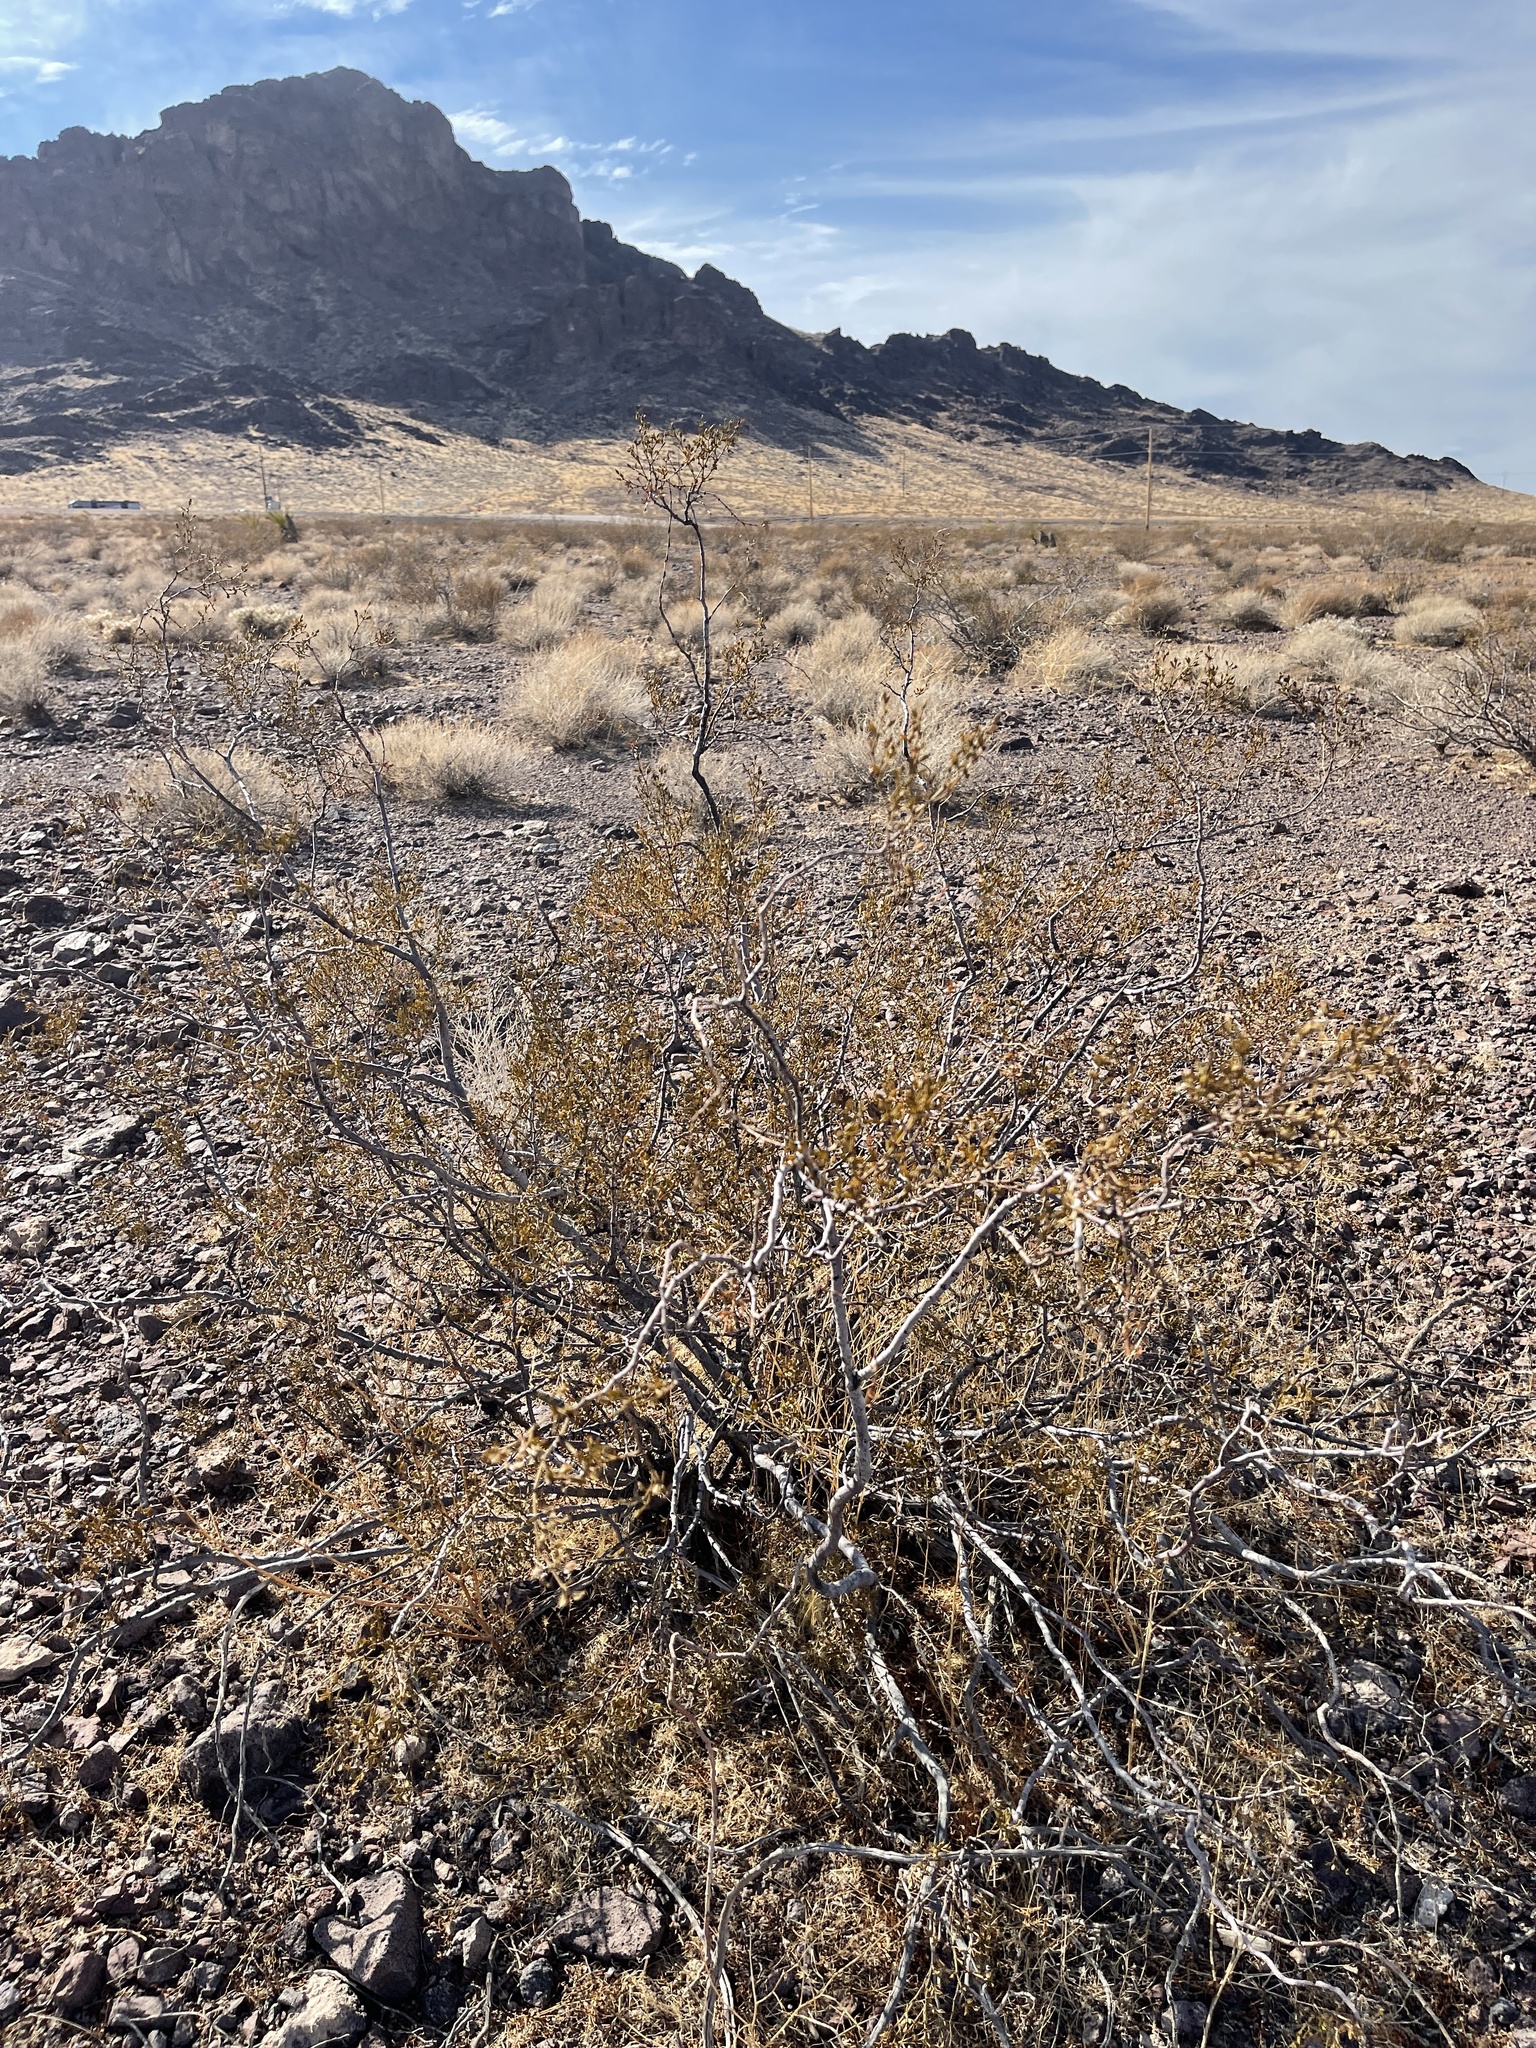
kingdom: Plantae
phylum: Tracheophyta
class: Magnoliopsida
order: Zygophyllales
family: Zygophyllaceae
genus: Larrea
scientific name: Larrea tridentata
